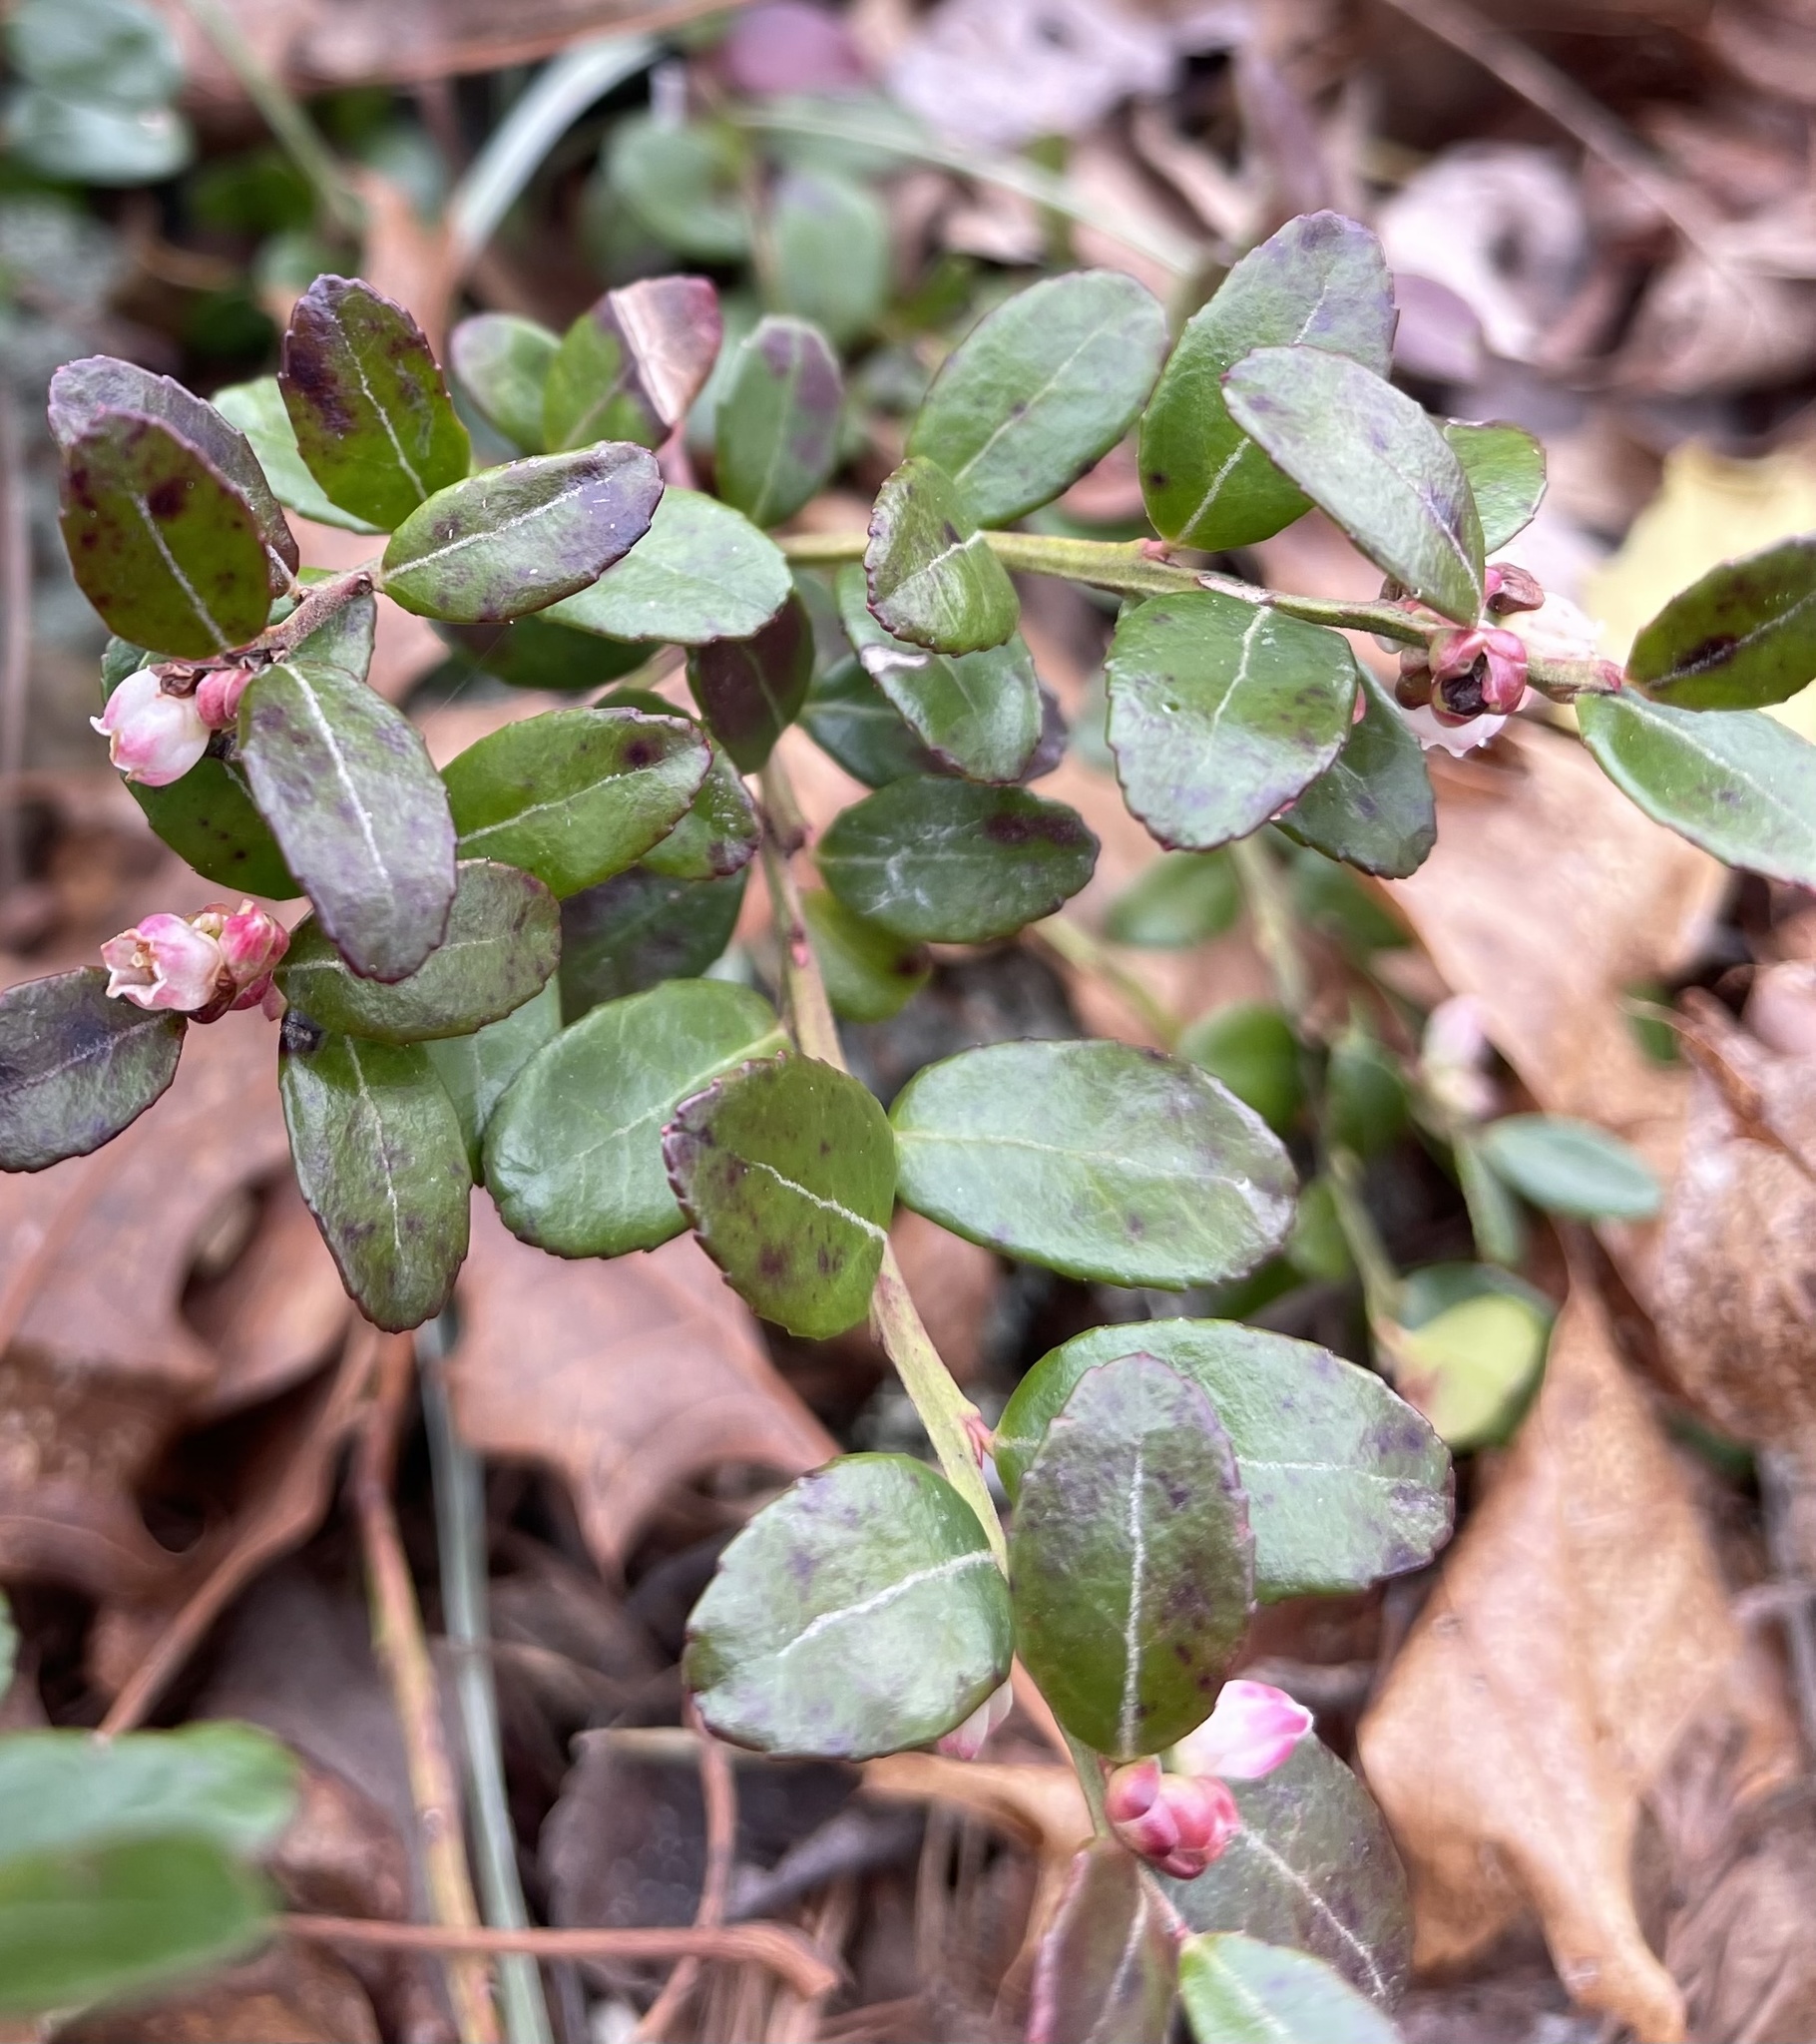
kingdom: Plantae
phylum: Tracheophyta
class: Magnoliopsida
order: Ericales
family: Ericaceae
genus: Gaylussacia
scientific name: Gaylussacia brachycera
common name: Box huckleberry
